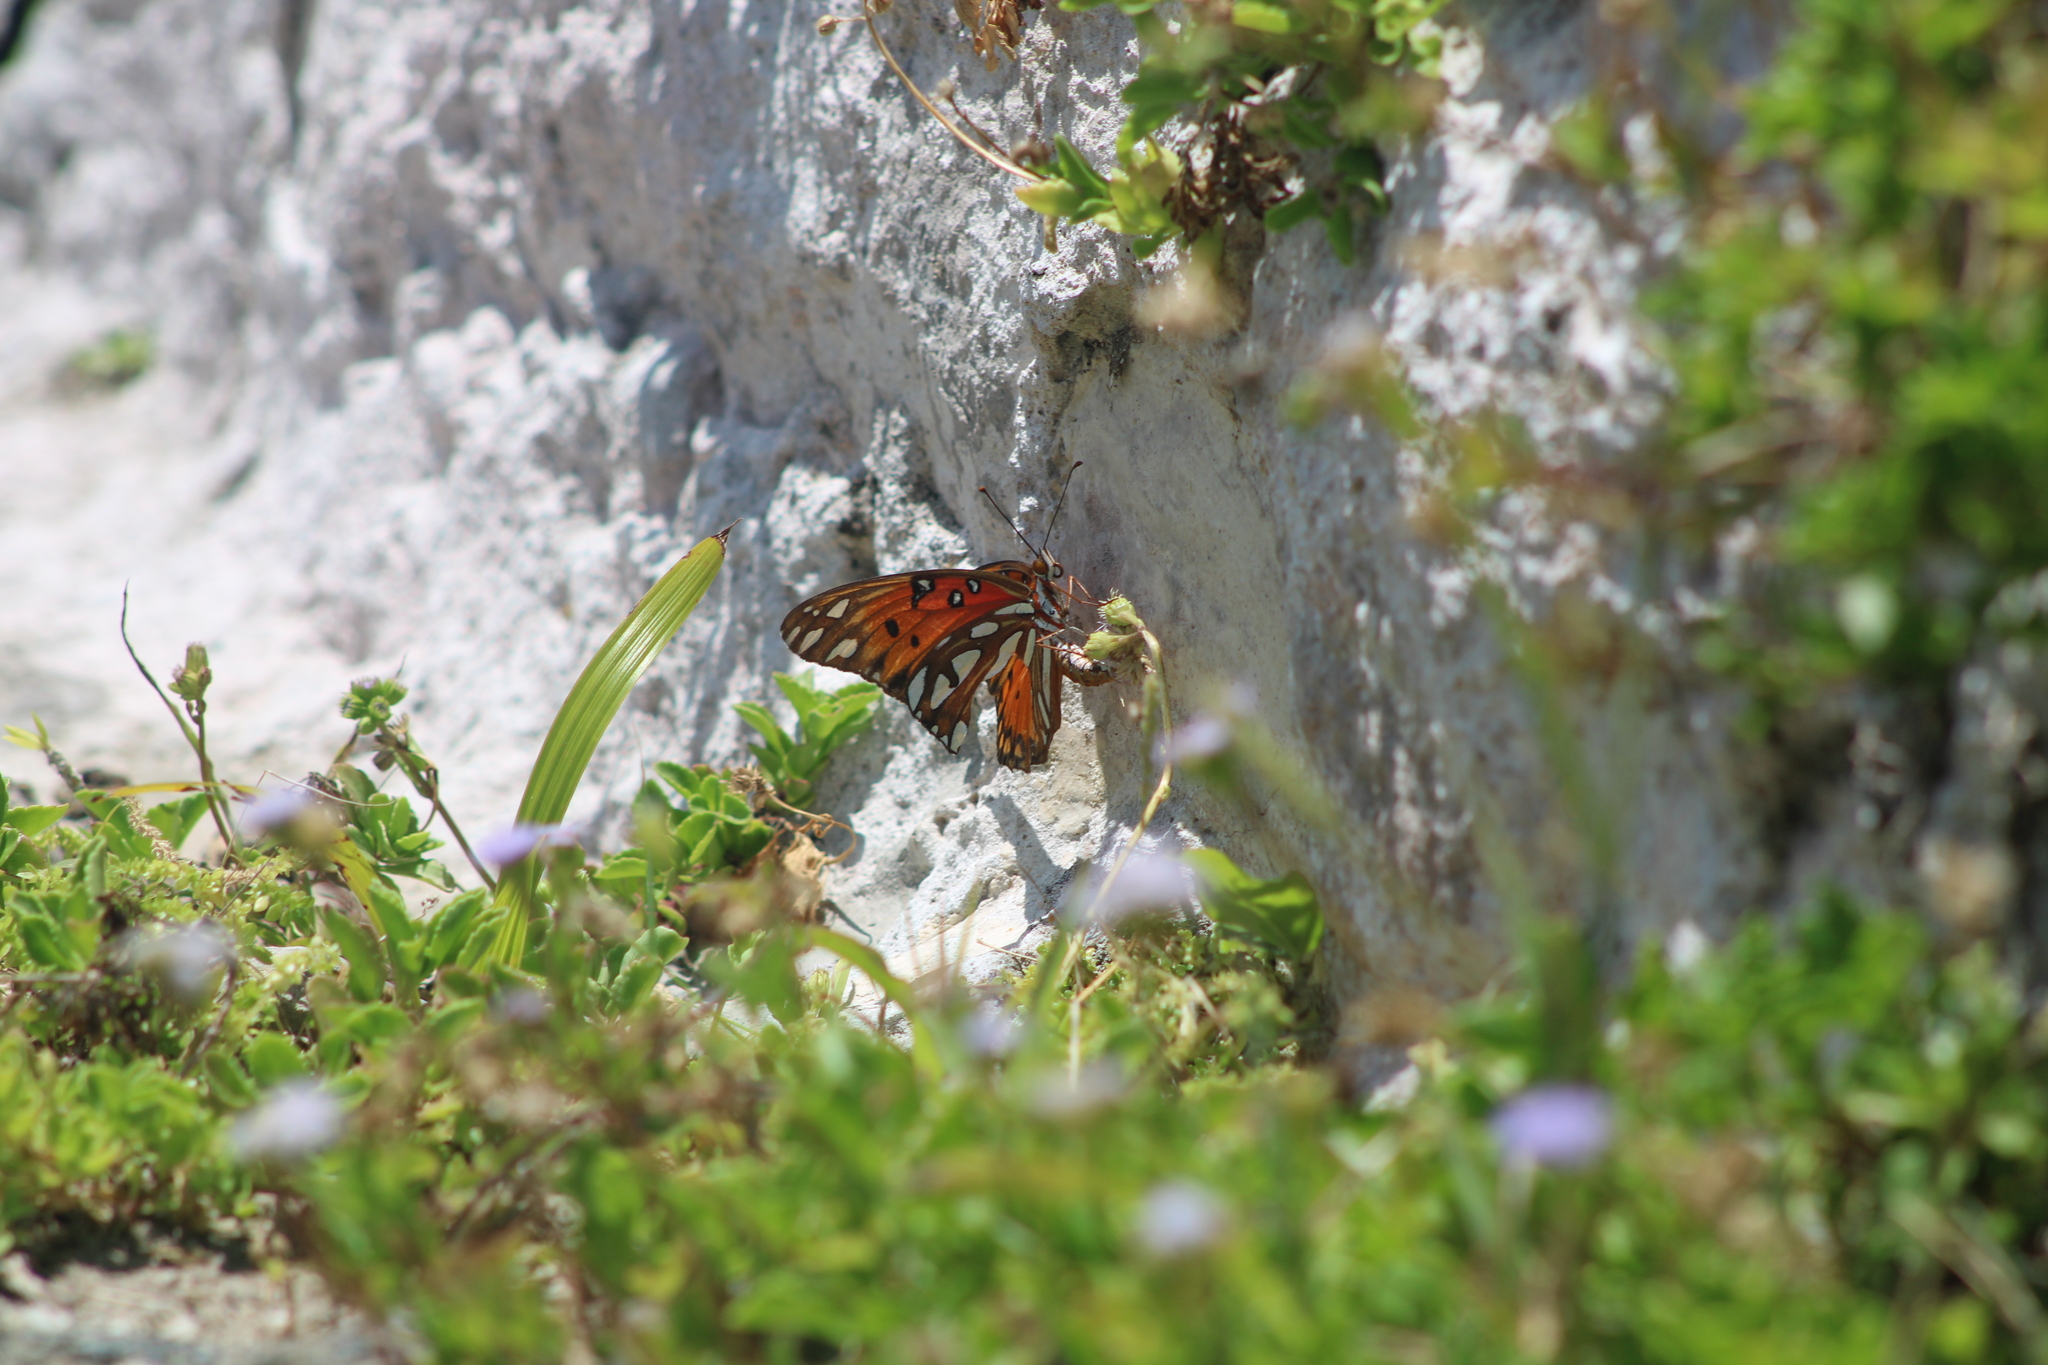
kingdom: Animalia
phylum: Arthropoda
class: Insecta
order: Lepidoptera
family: Nymphalidae
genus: Dione
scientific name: Dione vanillae
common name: Gulf fritillary
